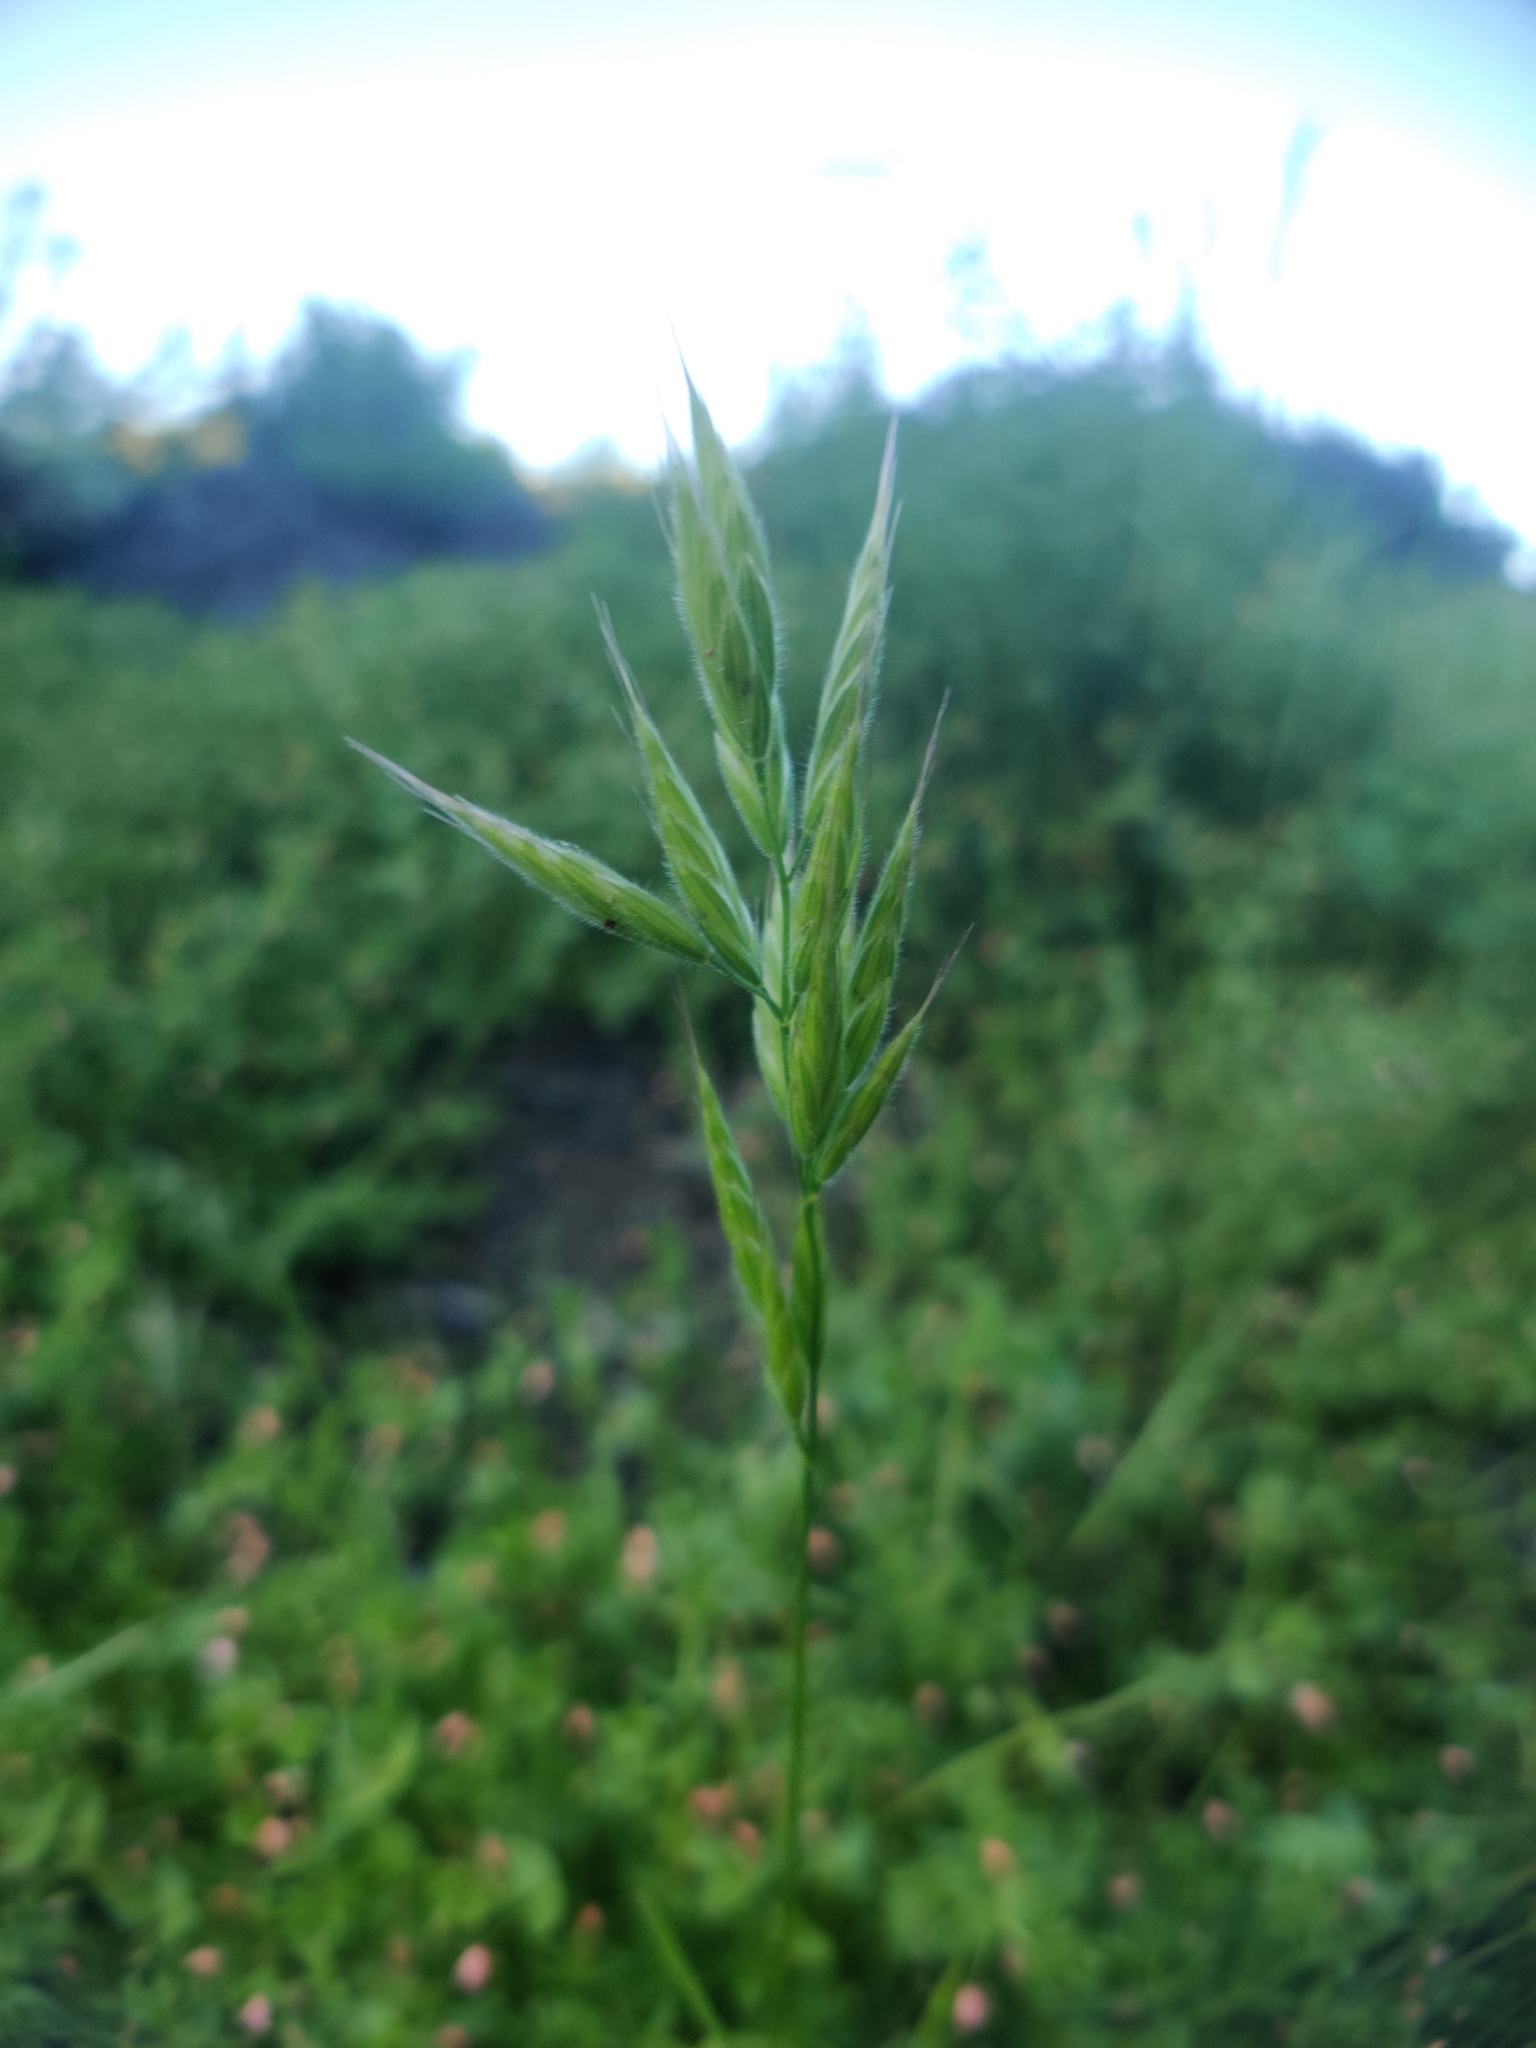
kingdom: Plantae
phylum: Tracheophyta
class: Liliopsida
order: Poales
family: Poaceae
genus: Bromus
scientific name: Bromus hordeaceus
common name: Soft brome
